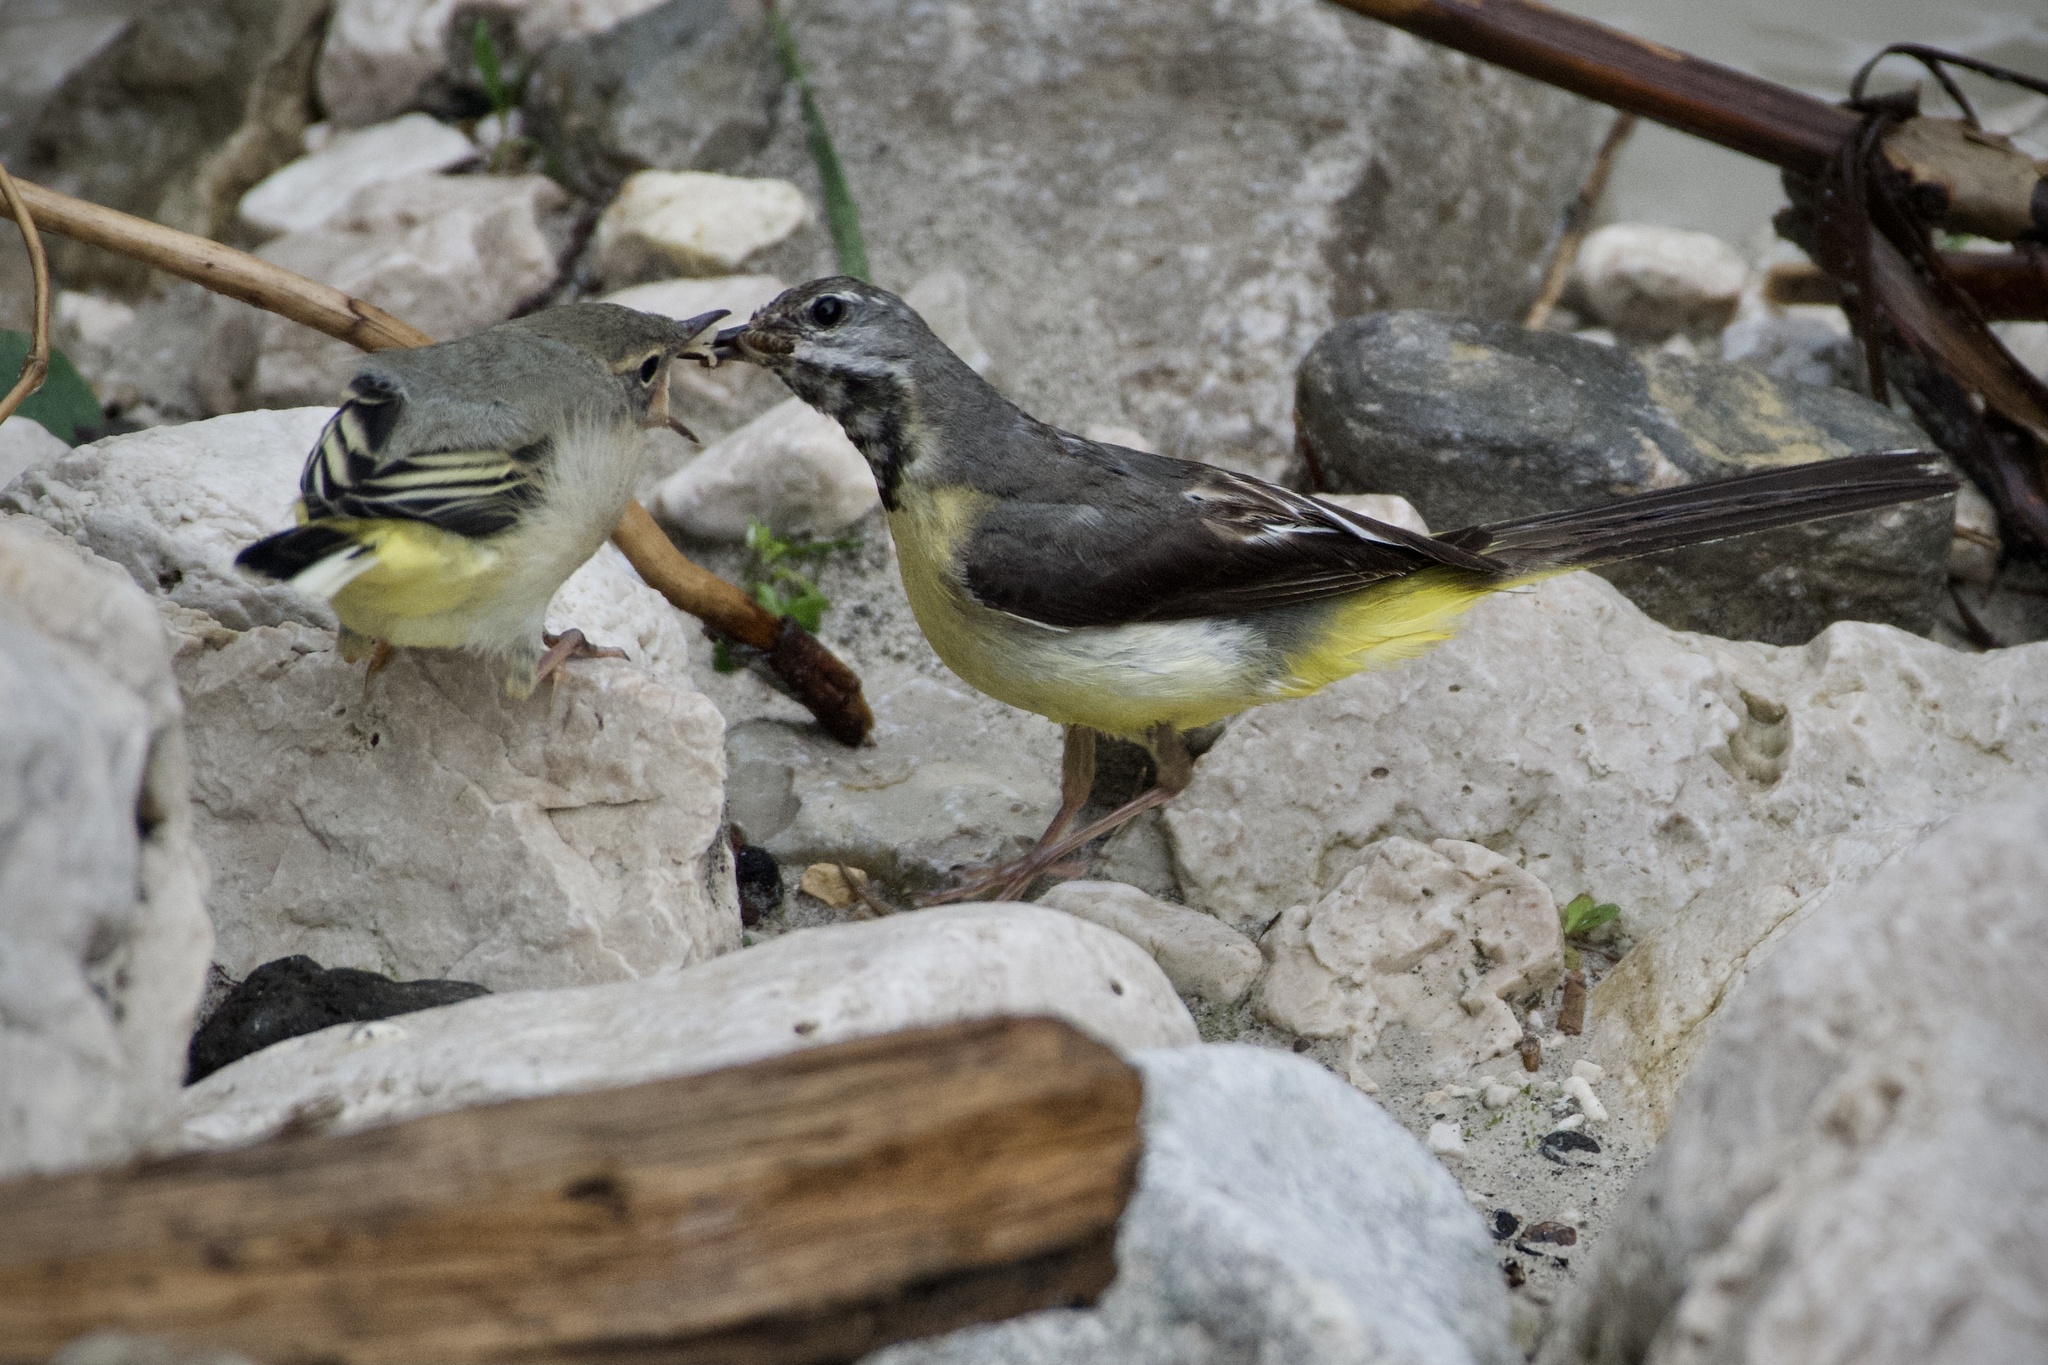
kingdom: Animalia
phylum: Chordata
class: Aves
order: Passeriformes
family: Motacillidae
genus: Motacilla
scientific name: Motacilla cinerea
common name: Grey wagtail
